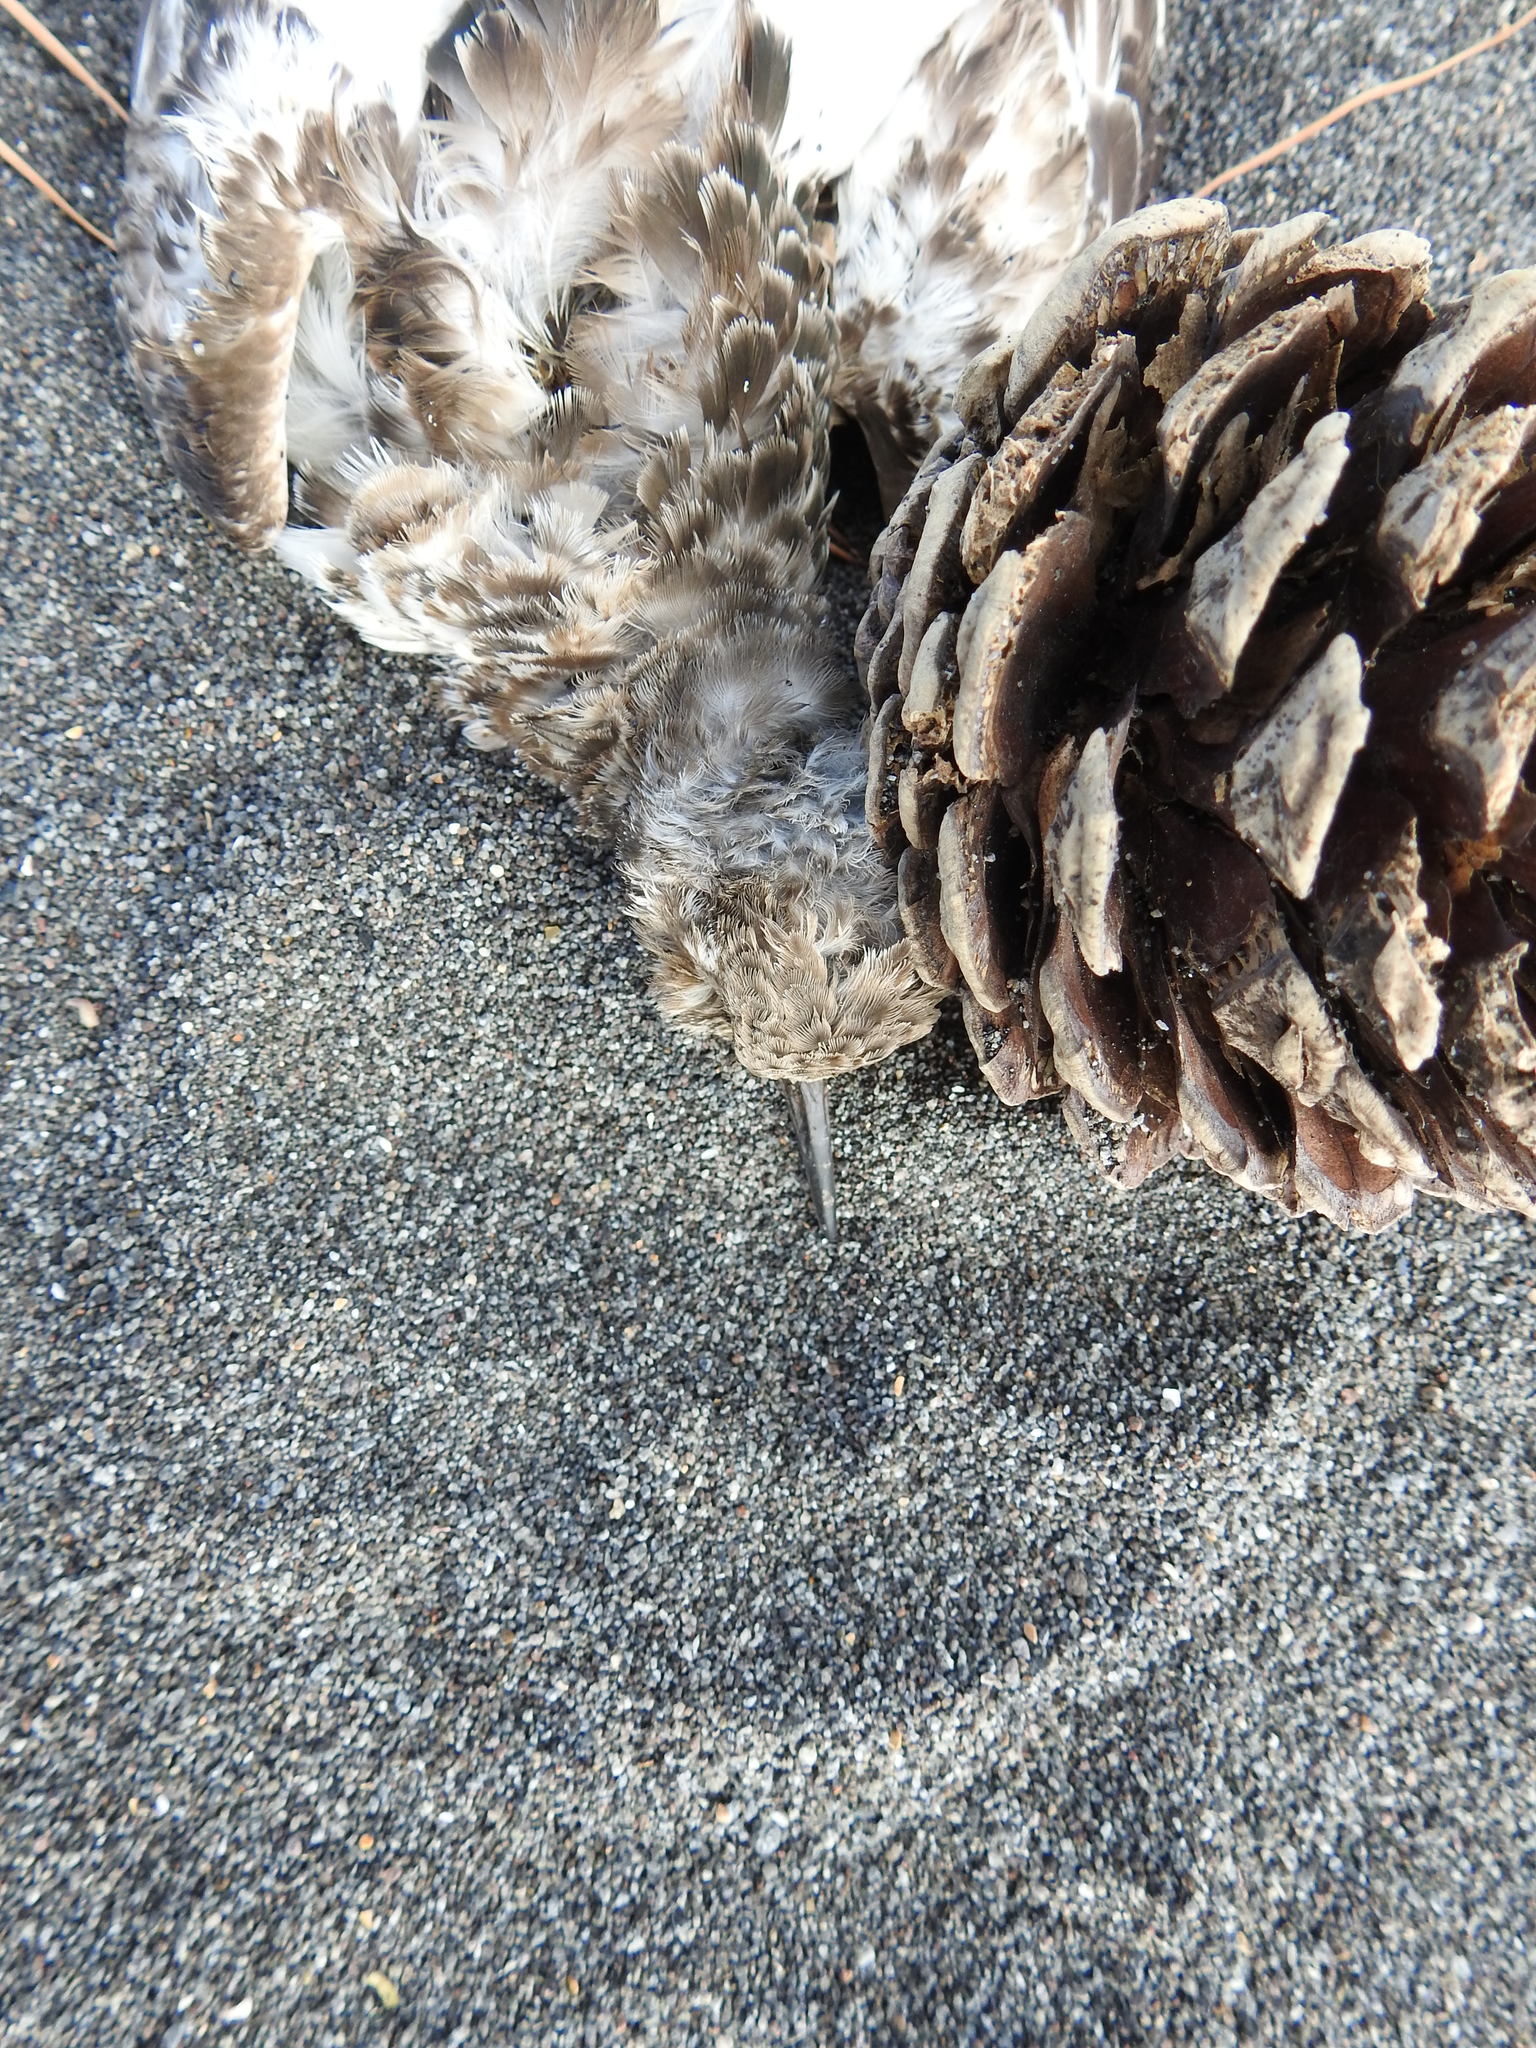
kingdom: Animalia
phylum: Chordata
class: Aves
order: Charadriiformes
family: Scolopacidae
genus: Arenaria
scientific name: Arenaria interpres
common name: Ruddy turnstone
